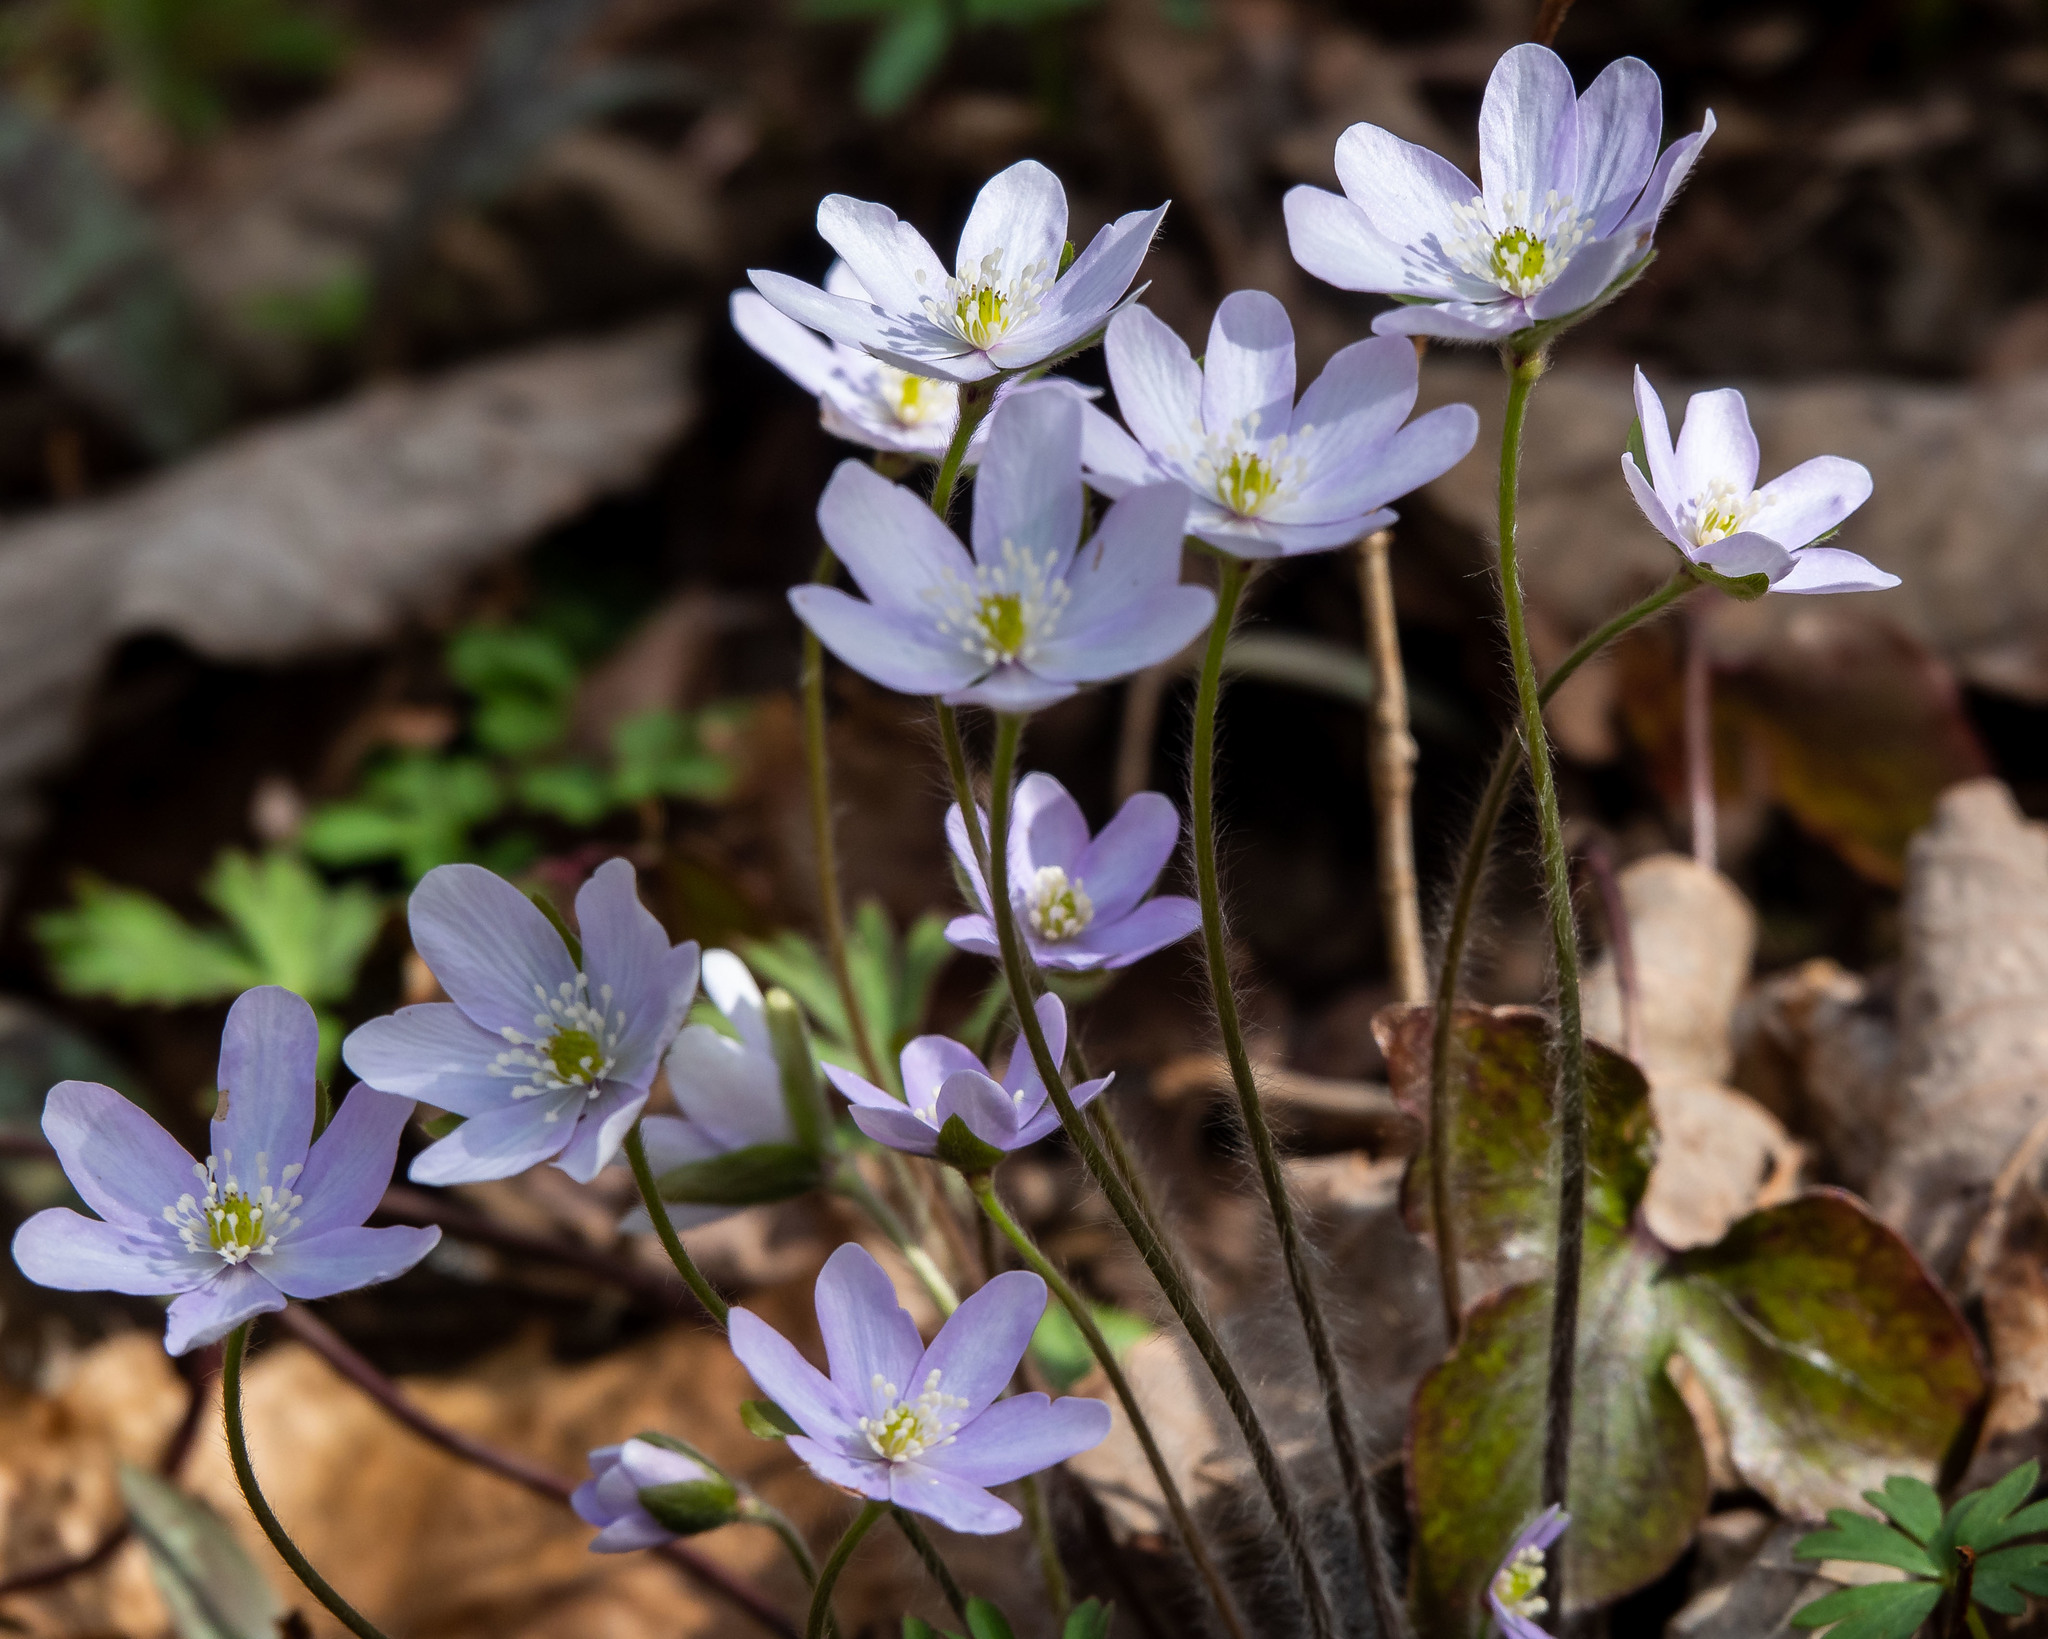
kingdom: Plantae
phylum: Tracheophyta
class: Magnoliopsida
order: Ranunculales
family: Ranunculaceae
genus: Hepatica
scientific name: Hepatica acutiloba
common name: Sharp-lobed hepatica
